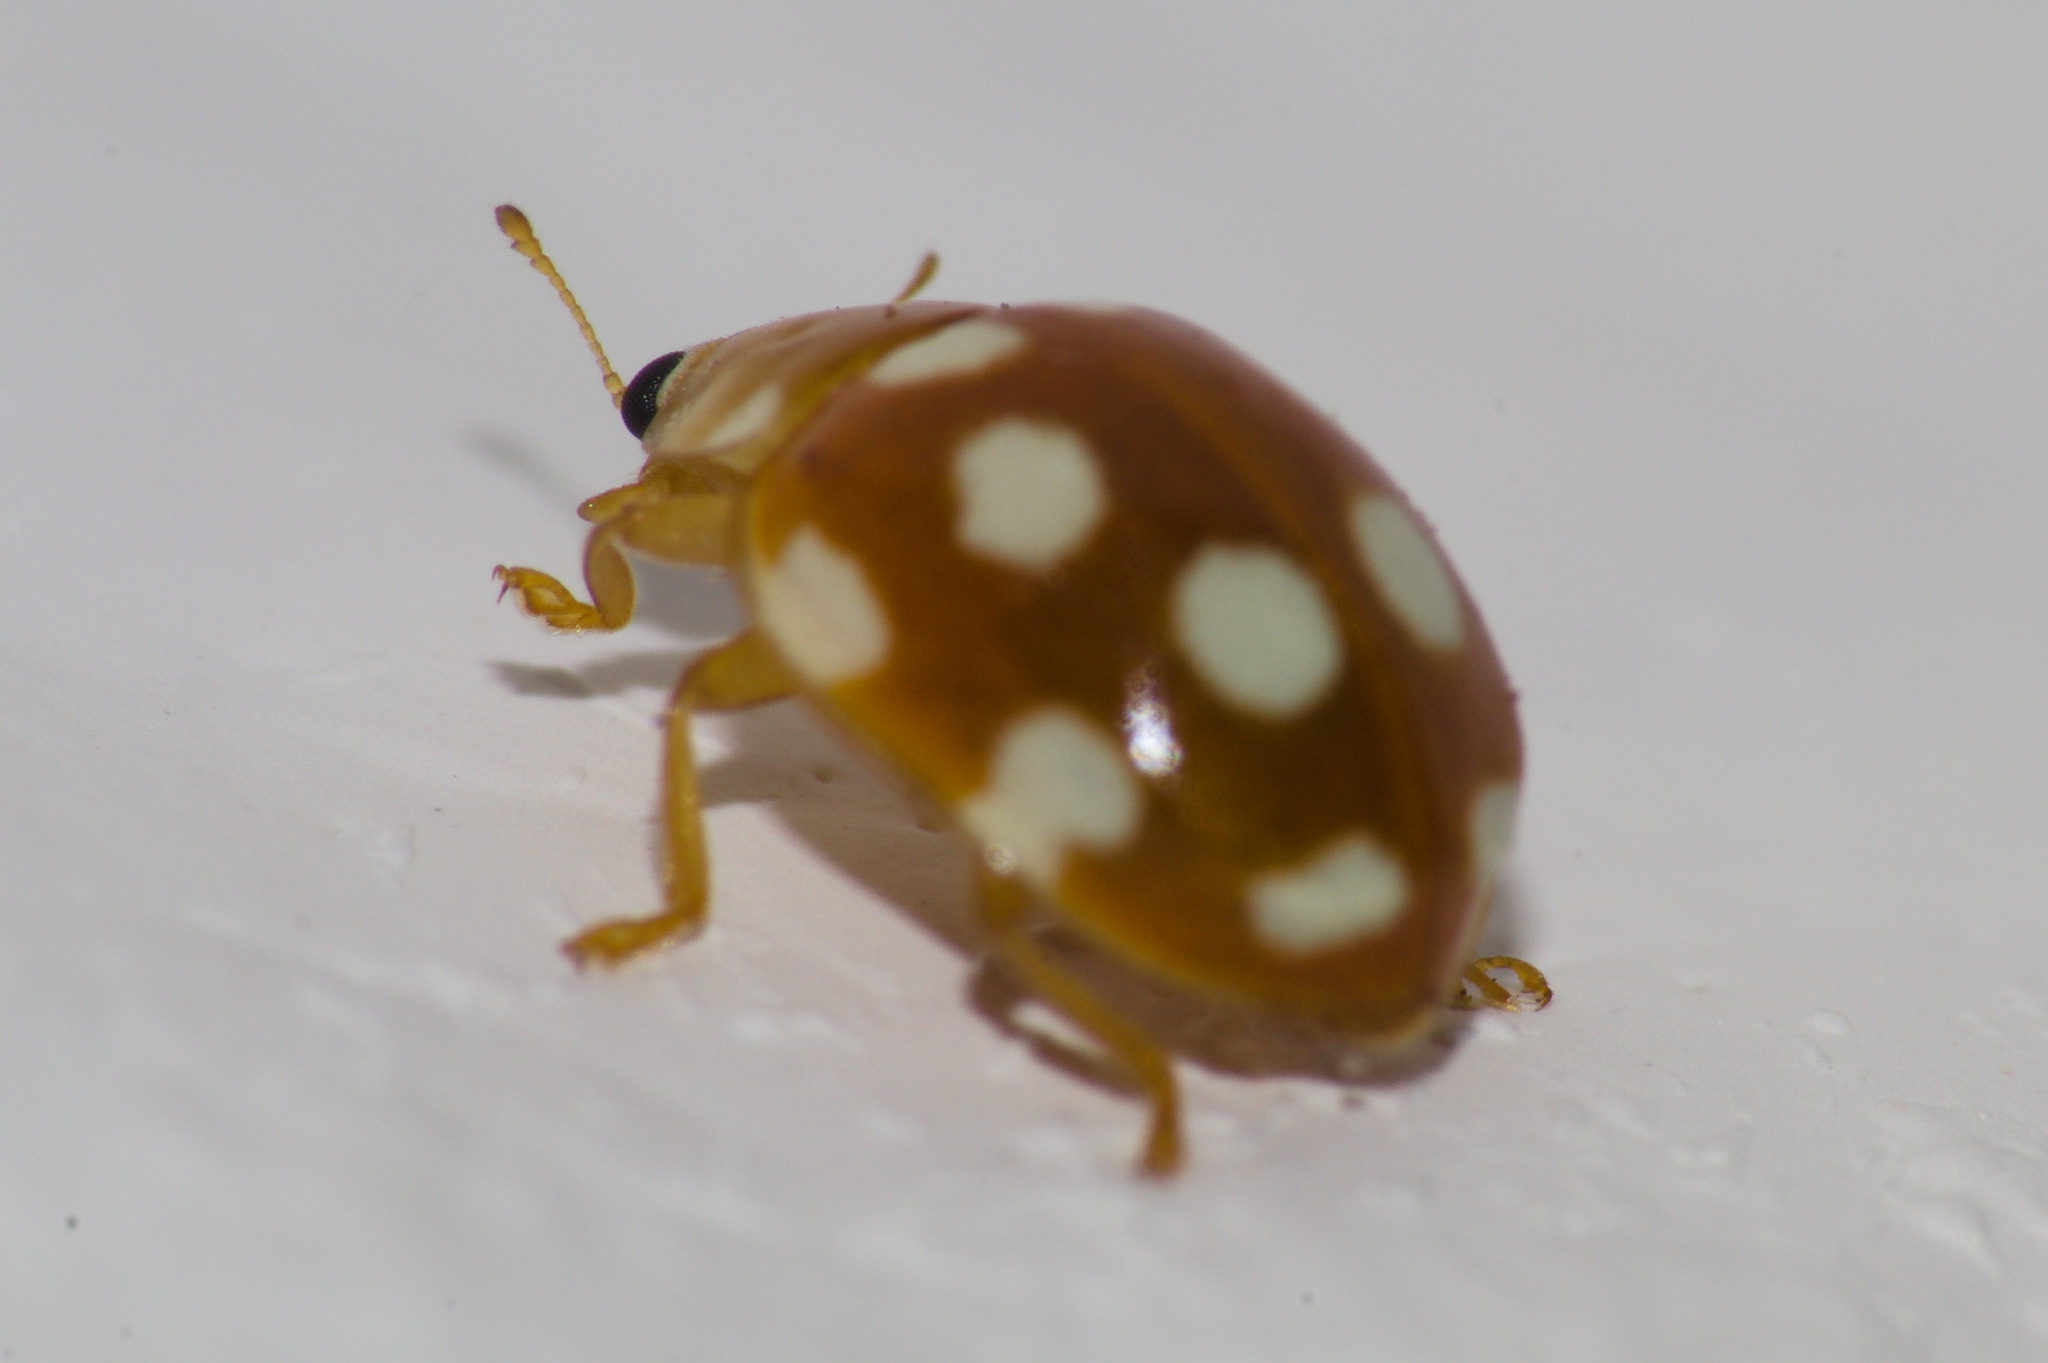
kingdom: Animalia
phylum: Arthropoda
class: Insecta
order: Coleoptera
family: Coccinellidae
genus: Vibidia
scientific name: Vibidia duodecimguttata
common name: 12-spot ladybird
